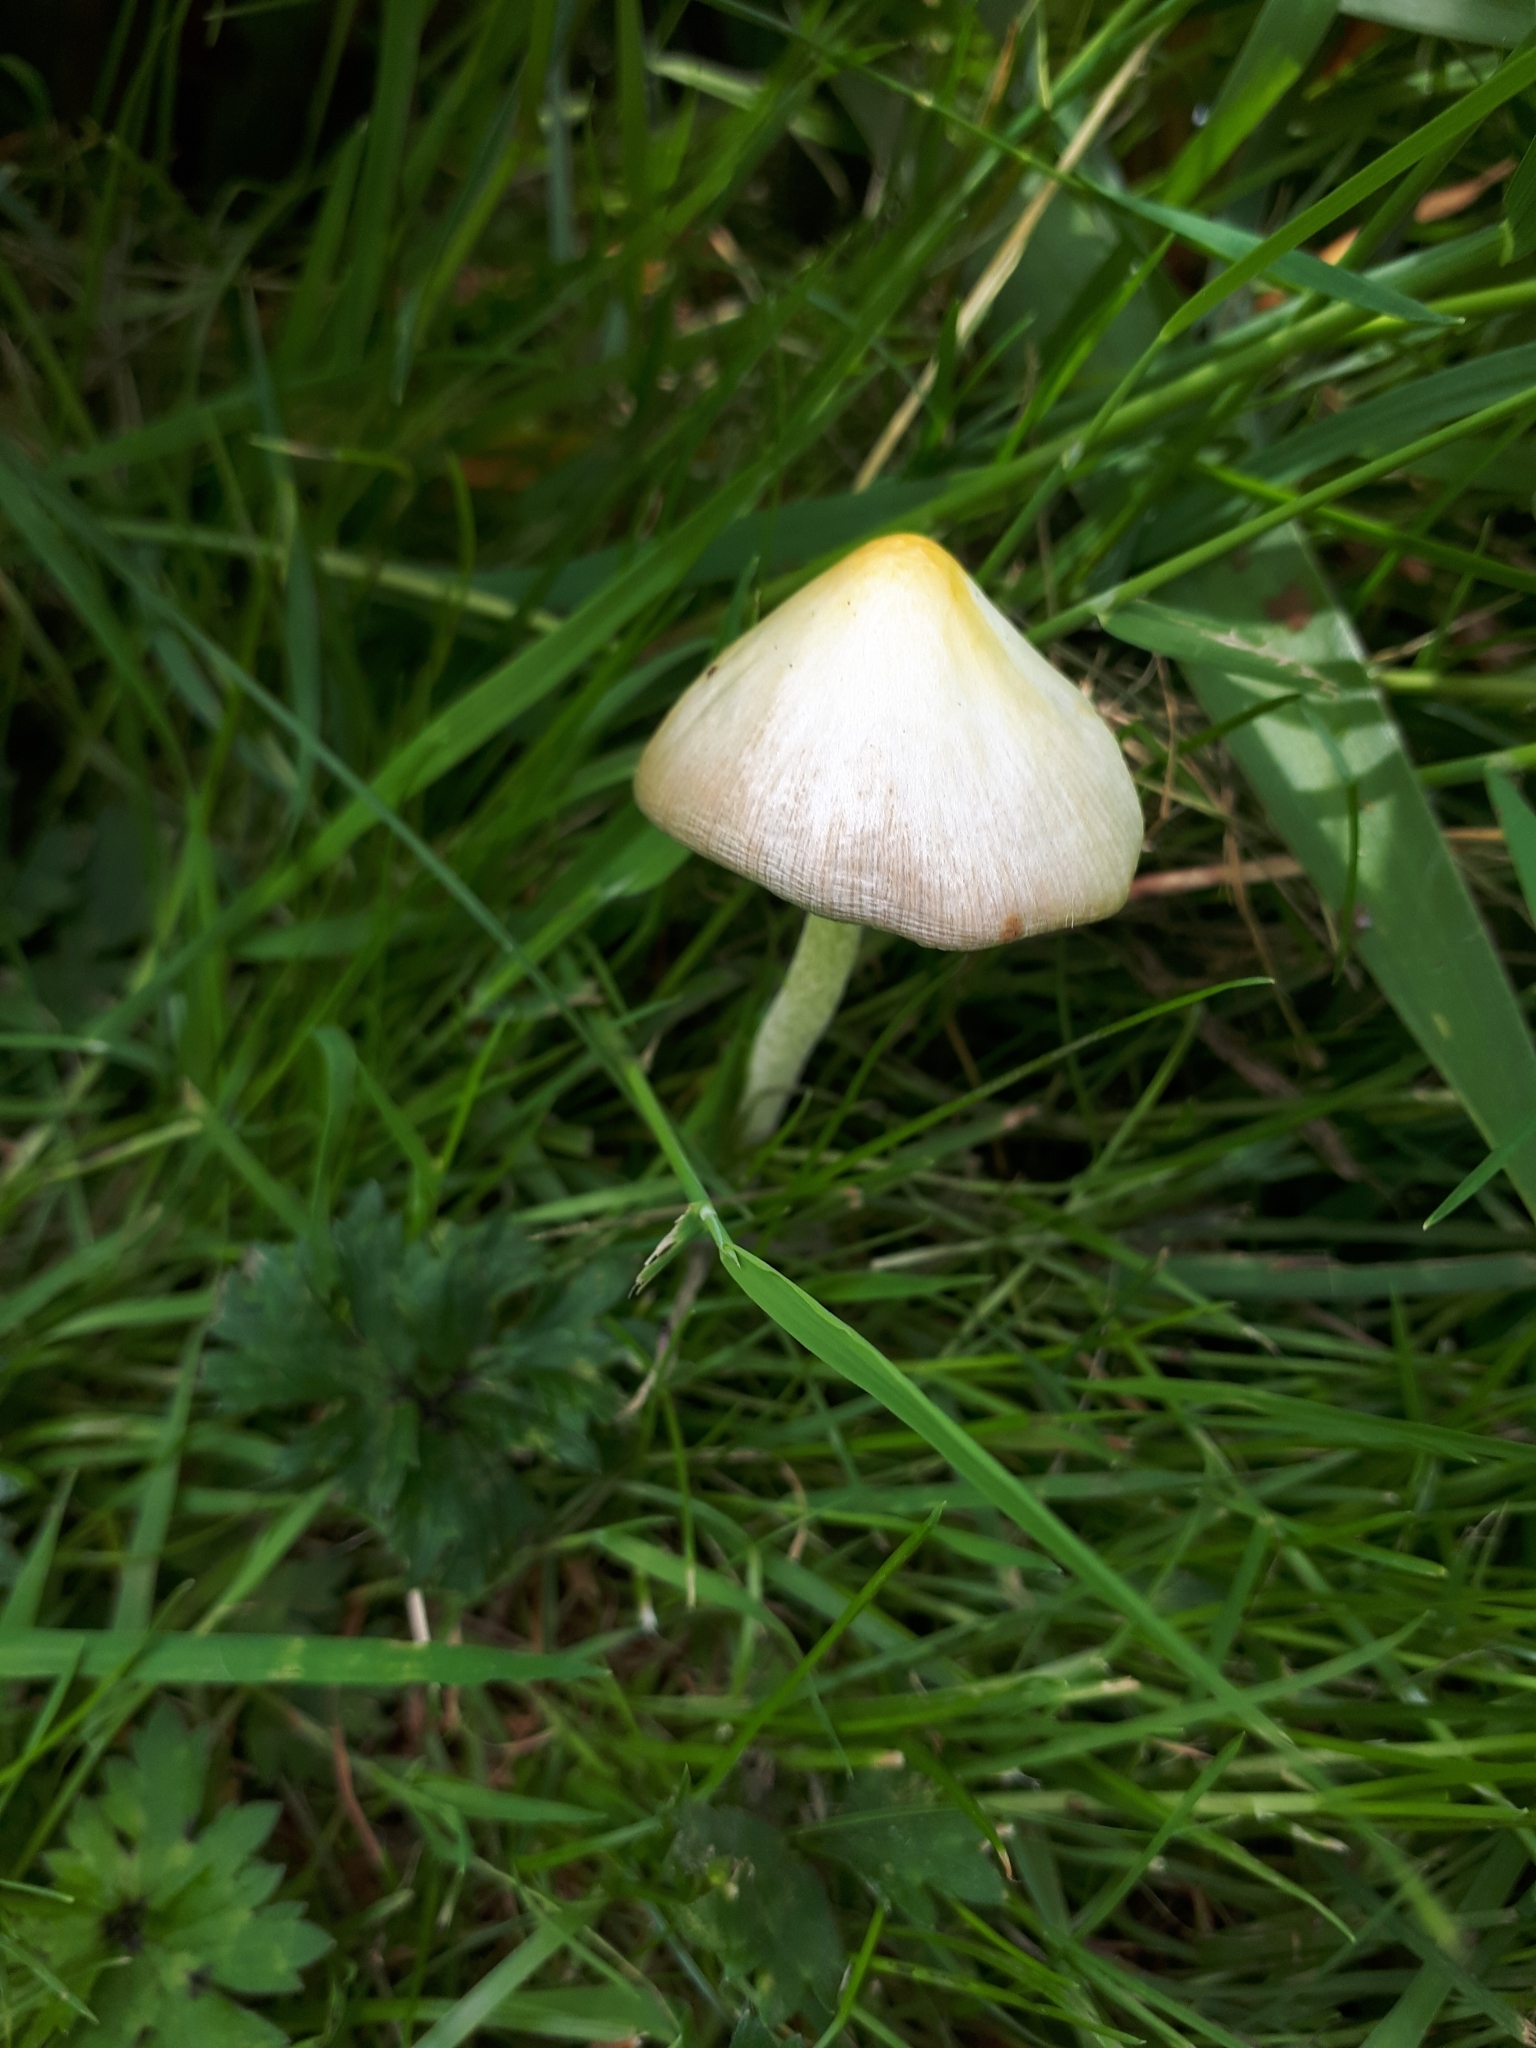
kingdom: Fungi
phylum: Basidiomycota
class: Agaricomycetes
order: Agaricales
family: Bolbitiaceae
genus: Conocybe
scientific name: Conocybe apala
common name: Milky conecap
